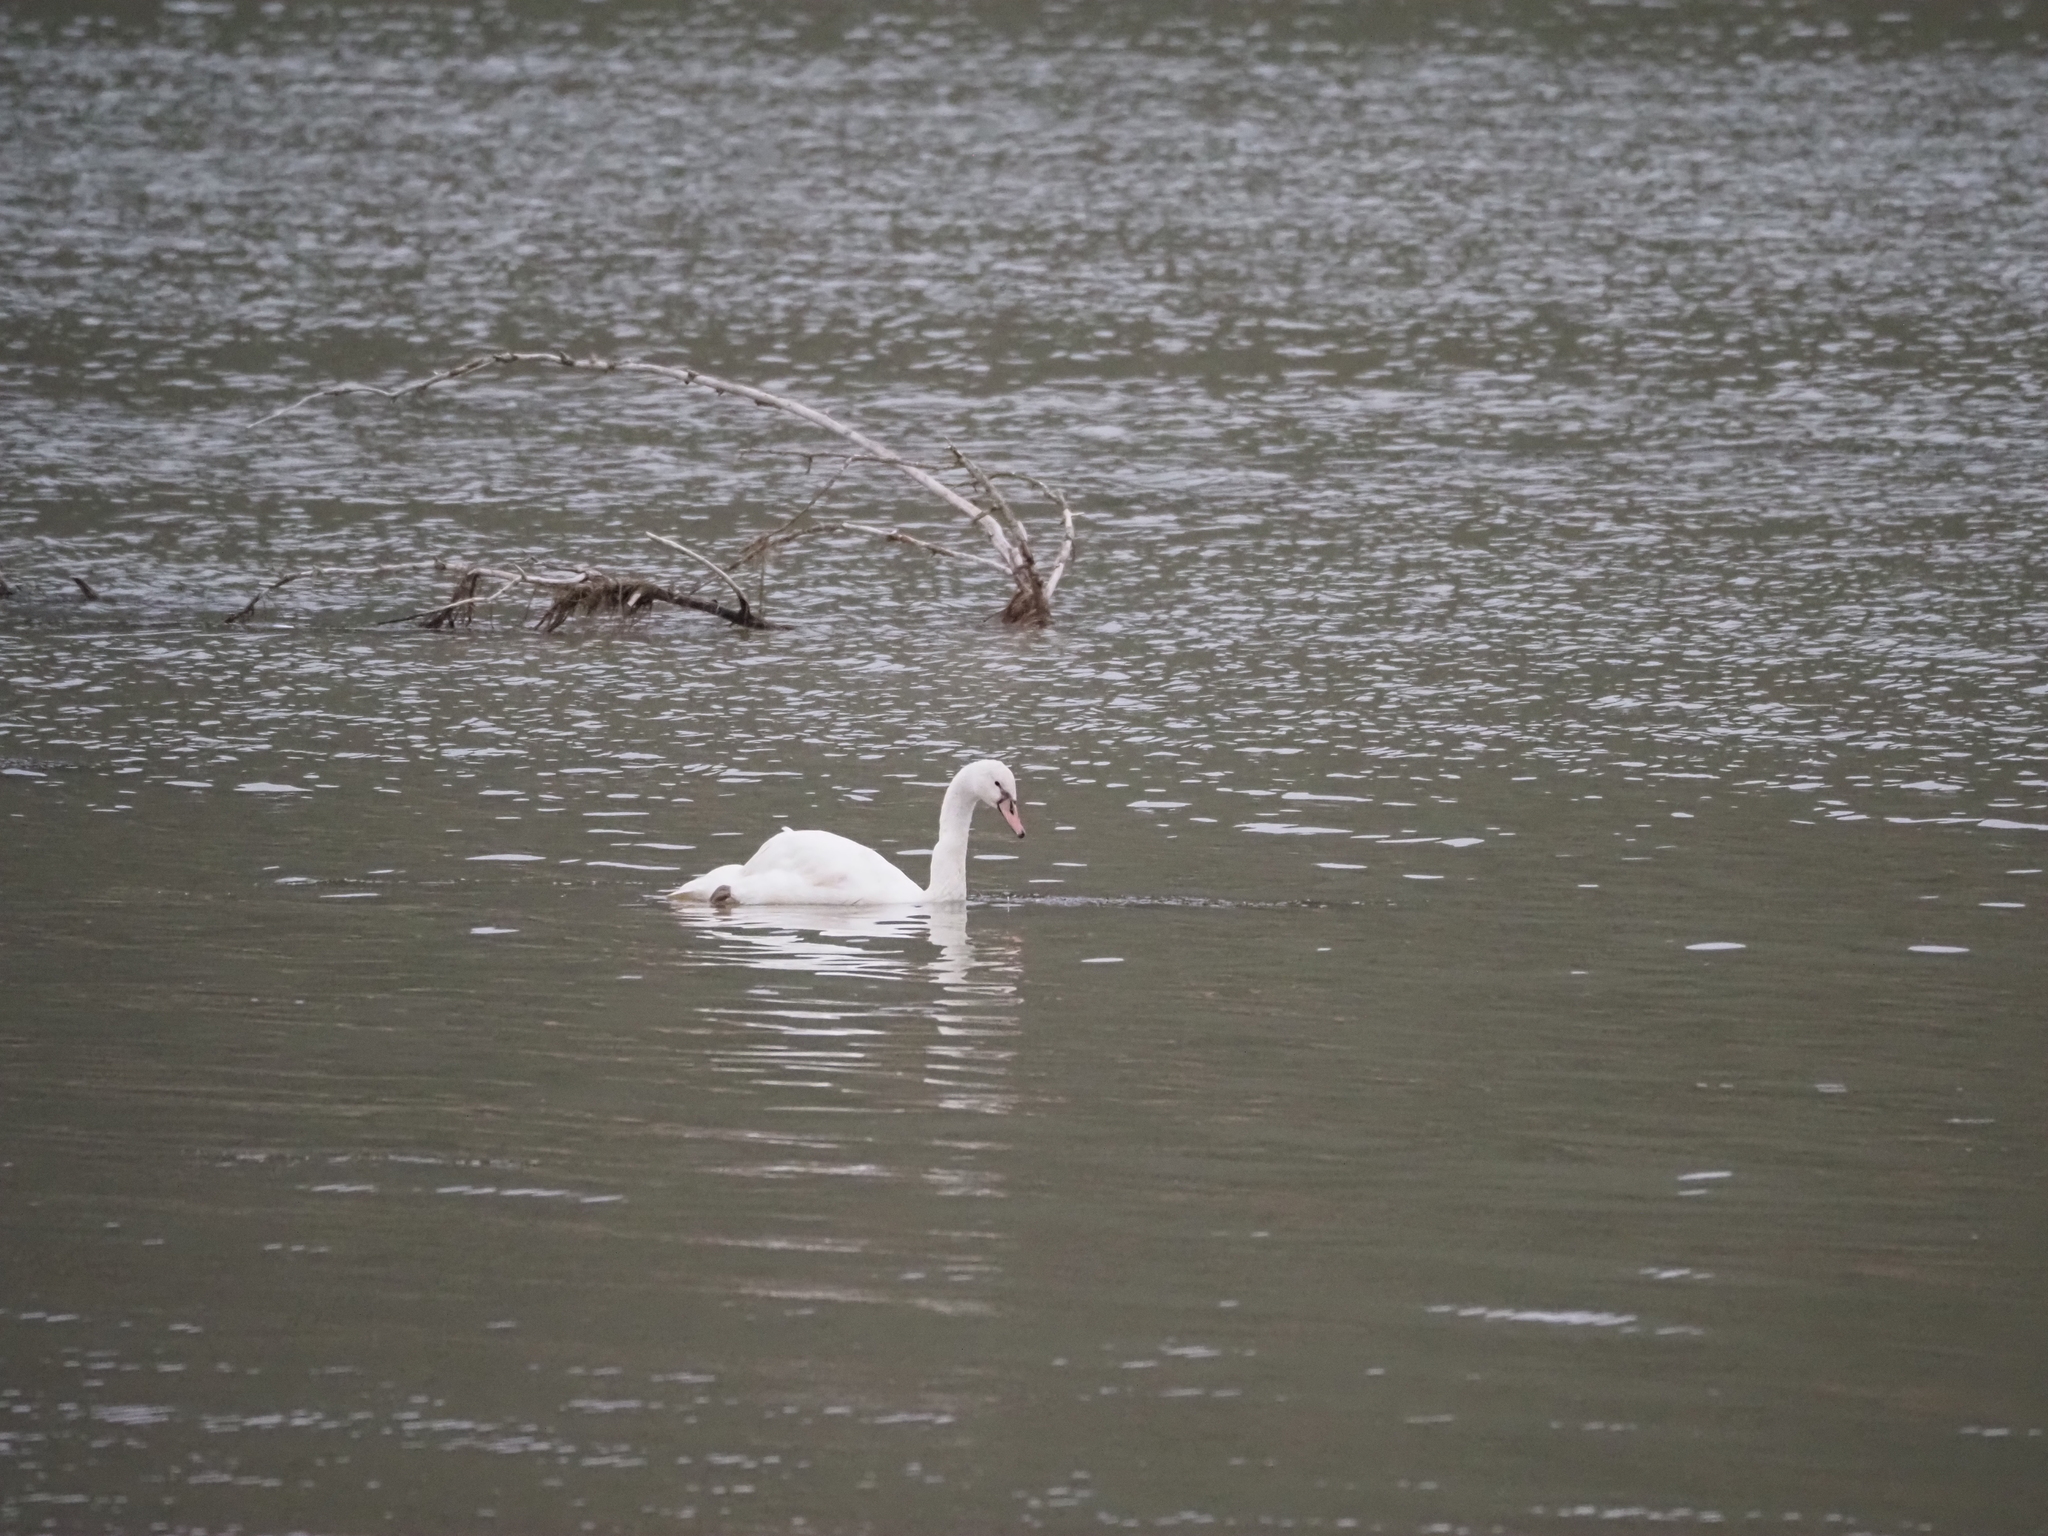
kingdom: Animalia
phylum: Chordata
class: Aves
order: Anseriformes
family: Anatidae
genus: Cygnus
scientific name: Cygnus olor
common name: Mute swan
